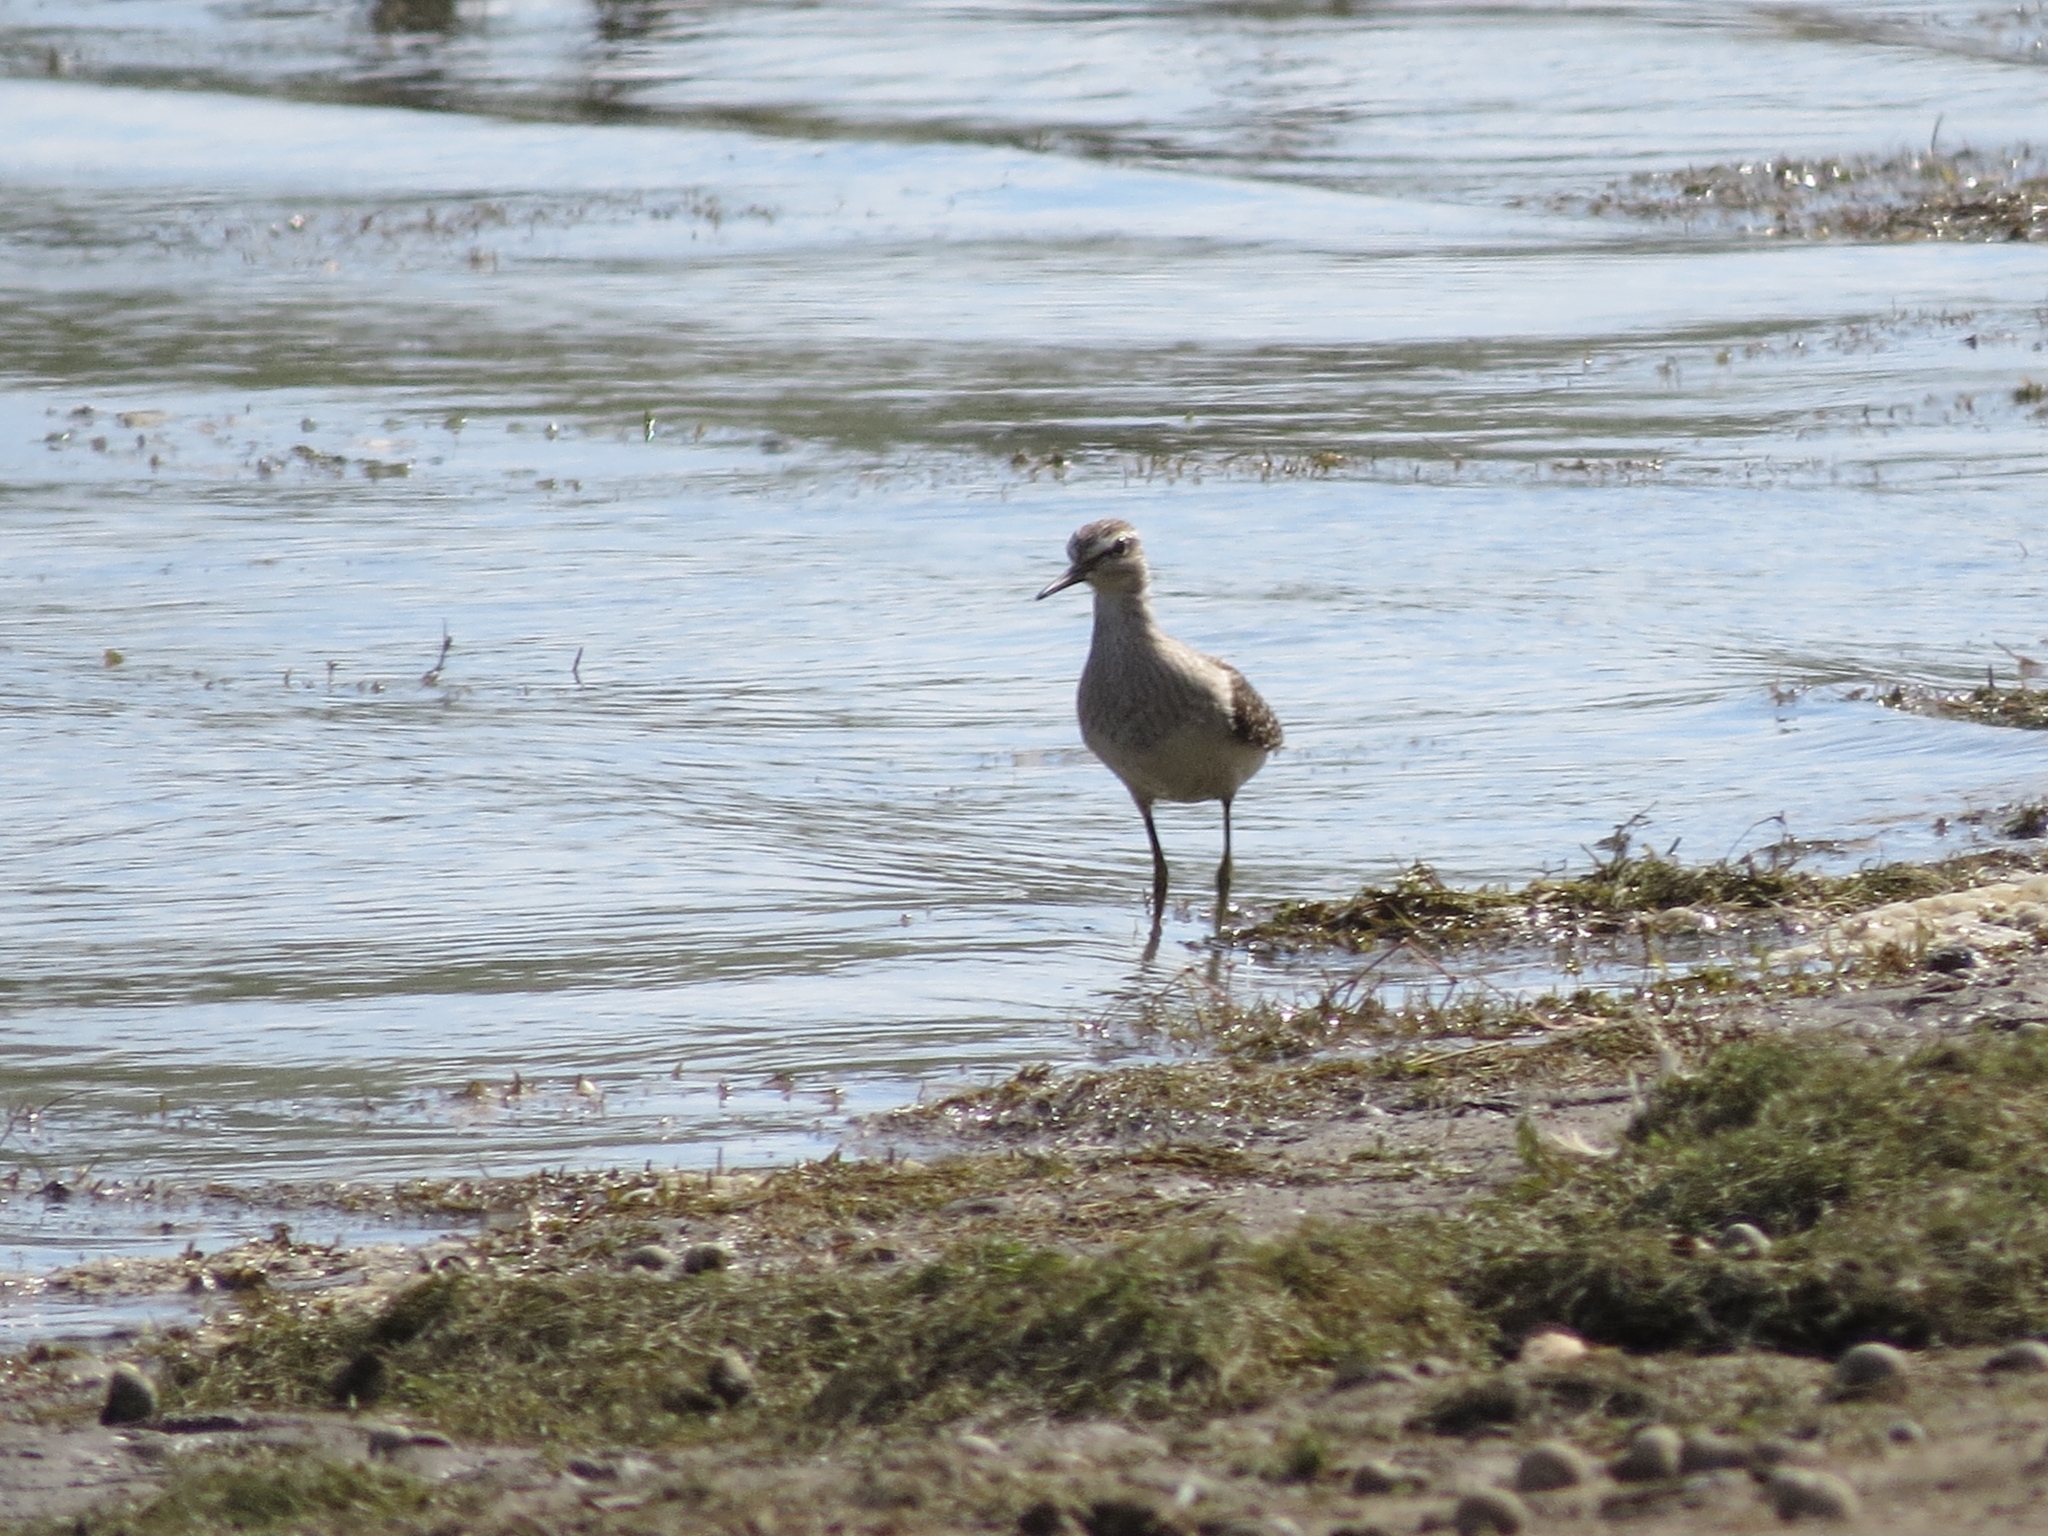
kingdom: Animalia
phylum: Chordata
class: Aves
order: Charadriiformes
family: Scolopacidae
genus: Tringa
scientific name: Tringa glareola
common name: Wood sandpiper
